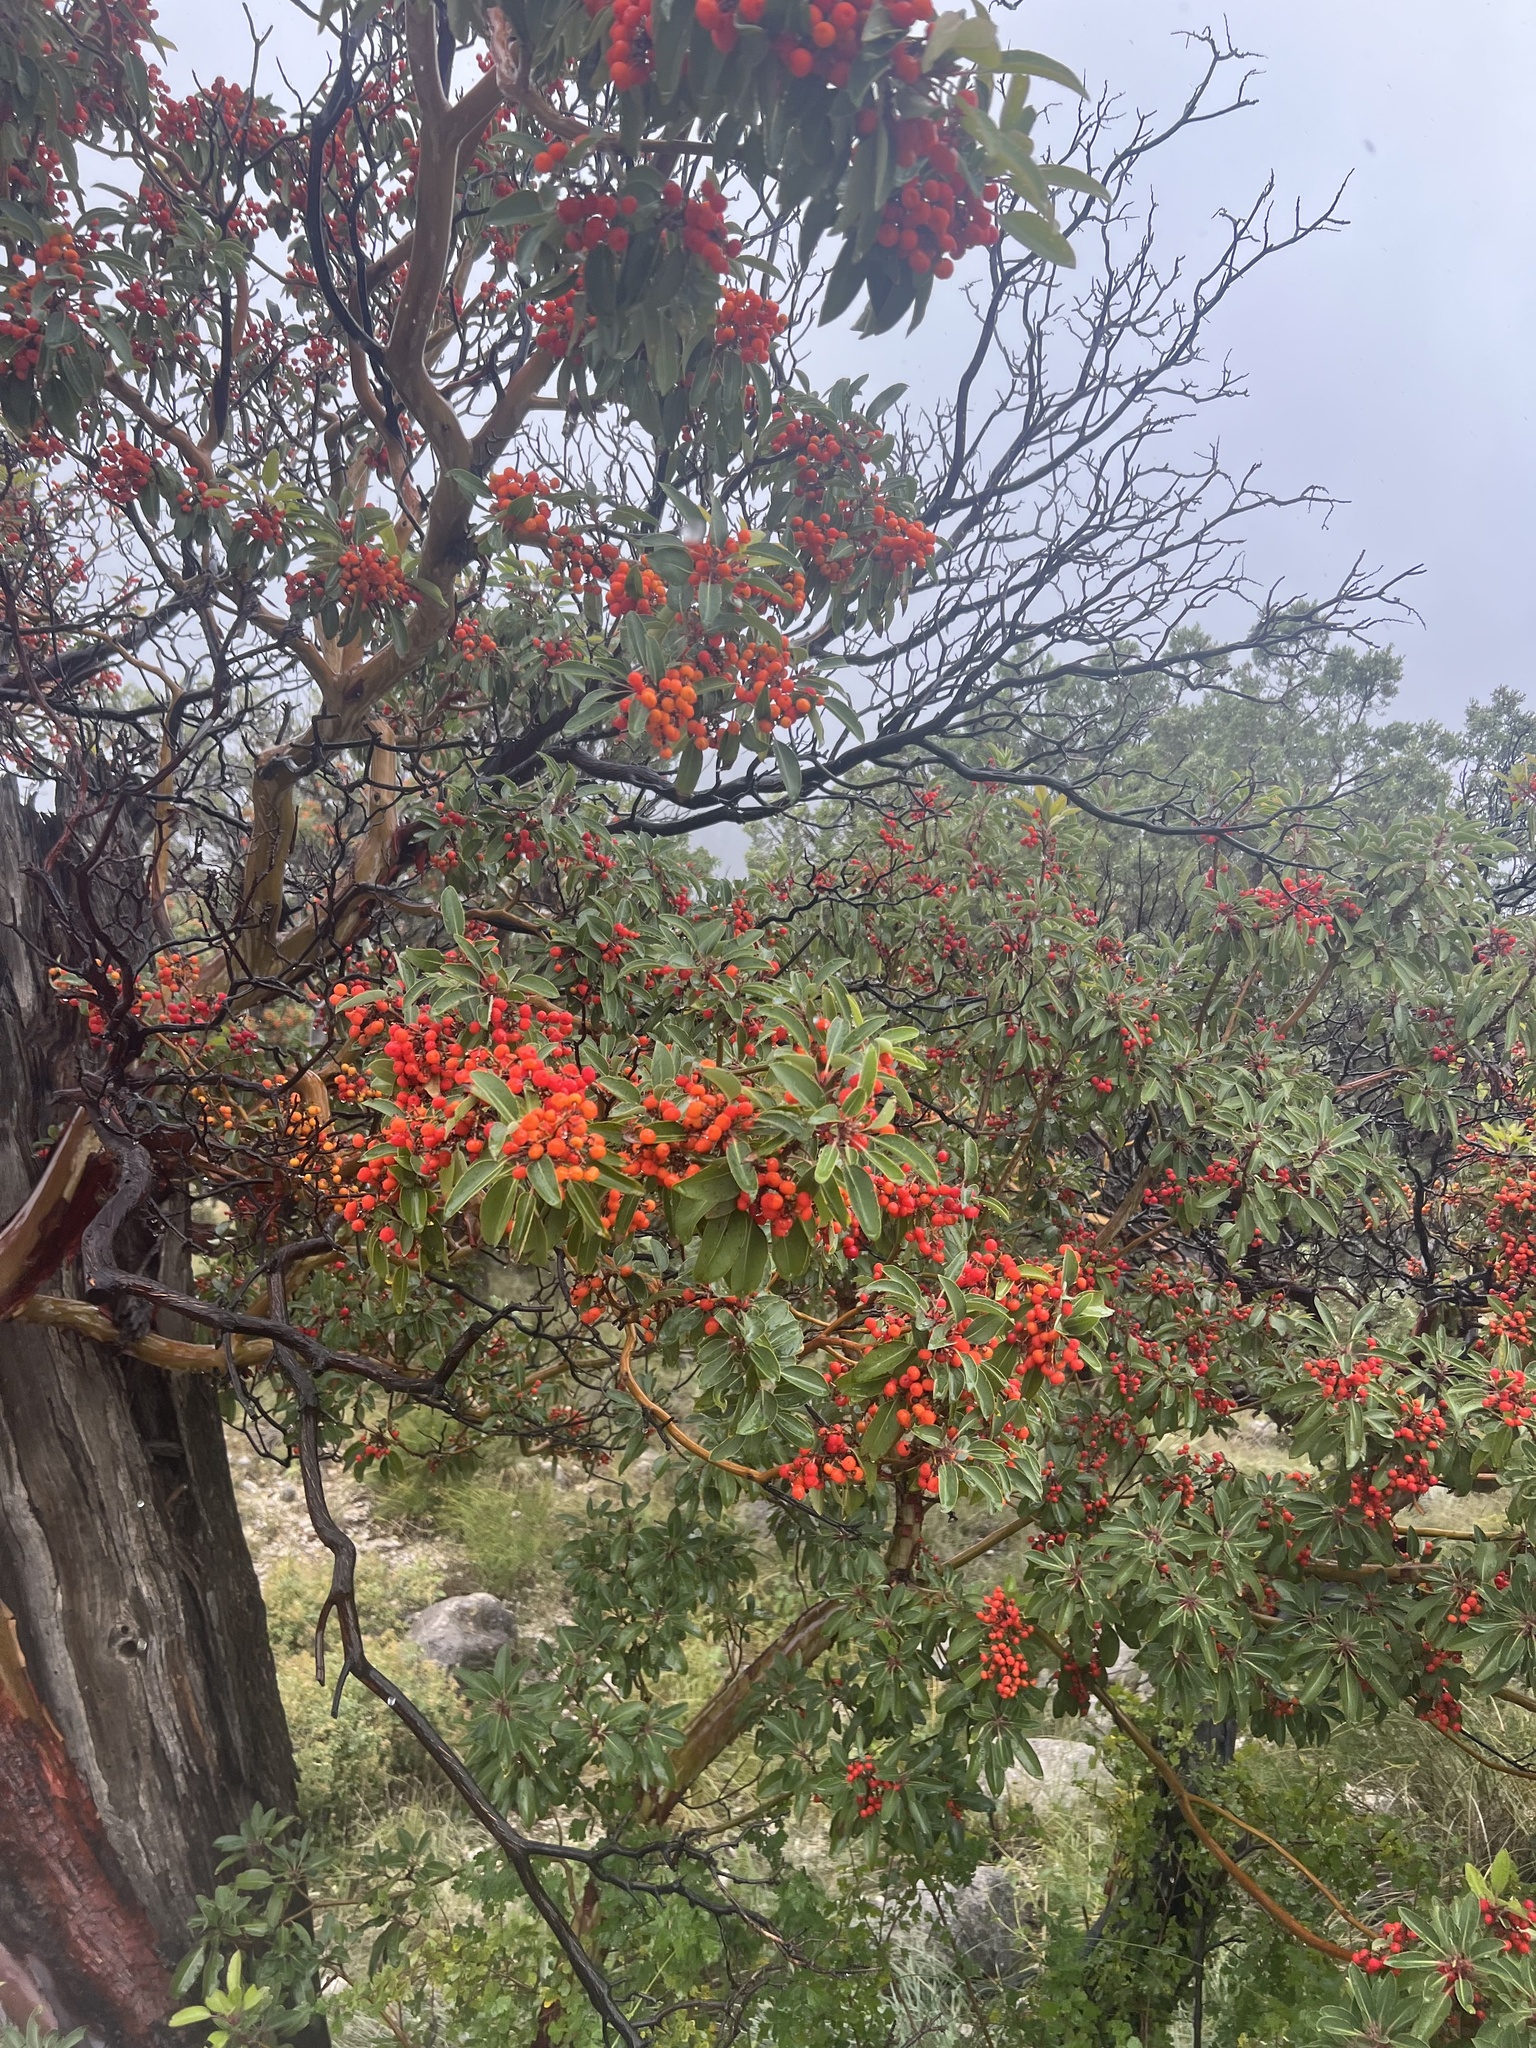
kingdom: Plantae
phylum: Tracheophyta
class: Magnoliopsida
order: Ericales
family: Ericaceae
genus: Arbutus
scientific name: Arbutus xalapensis
